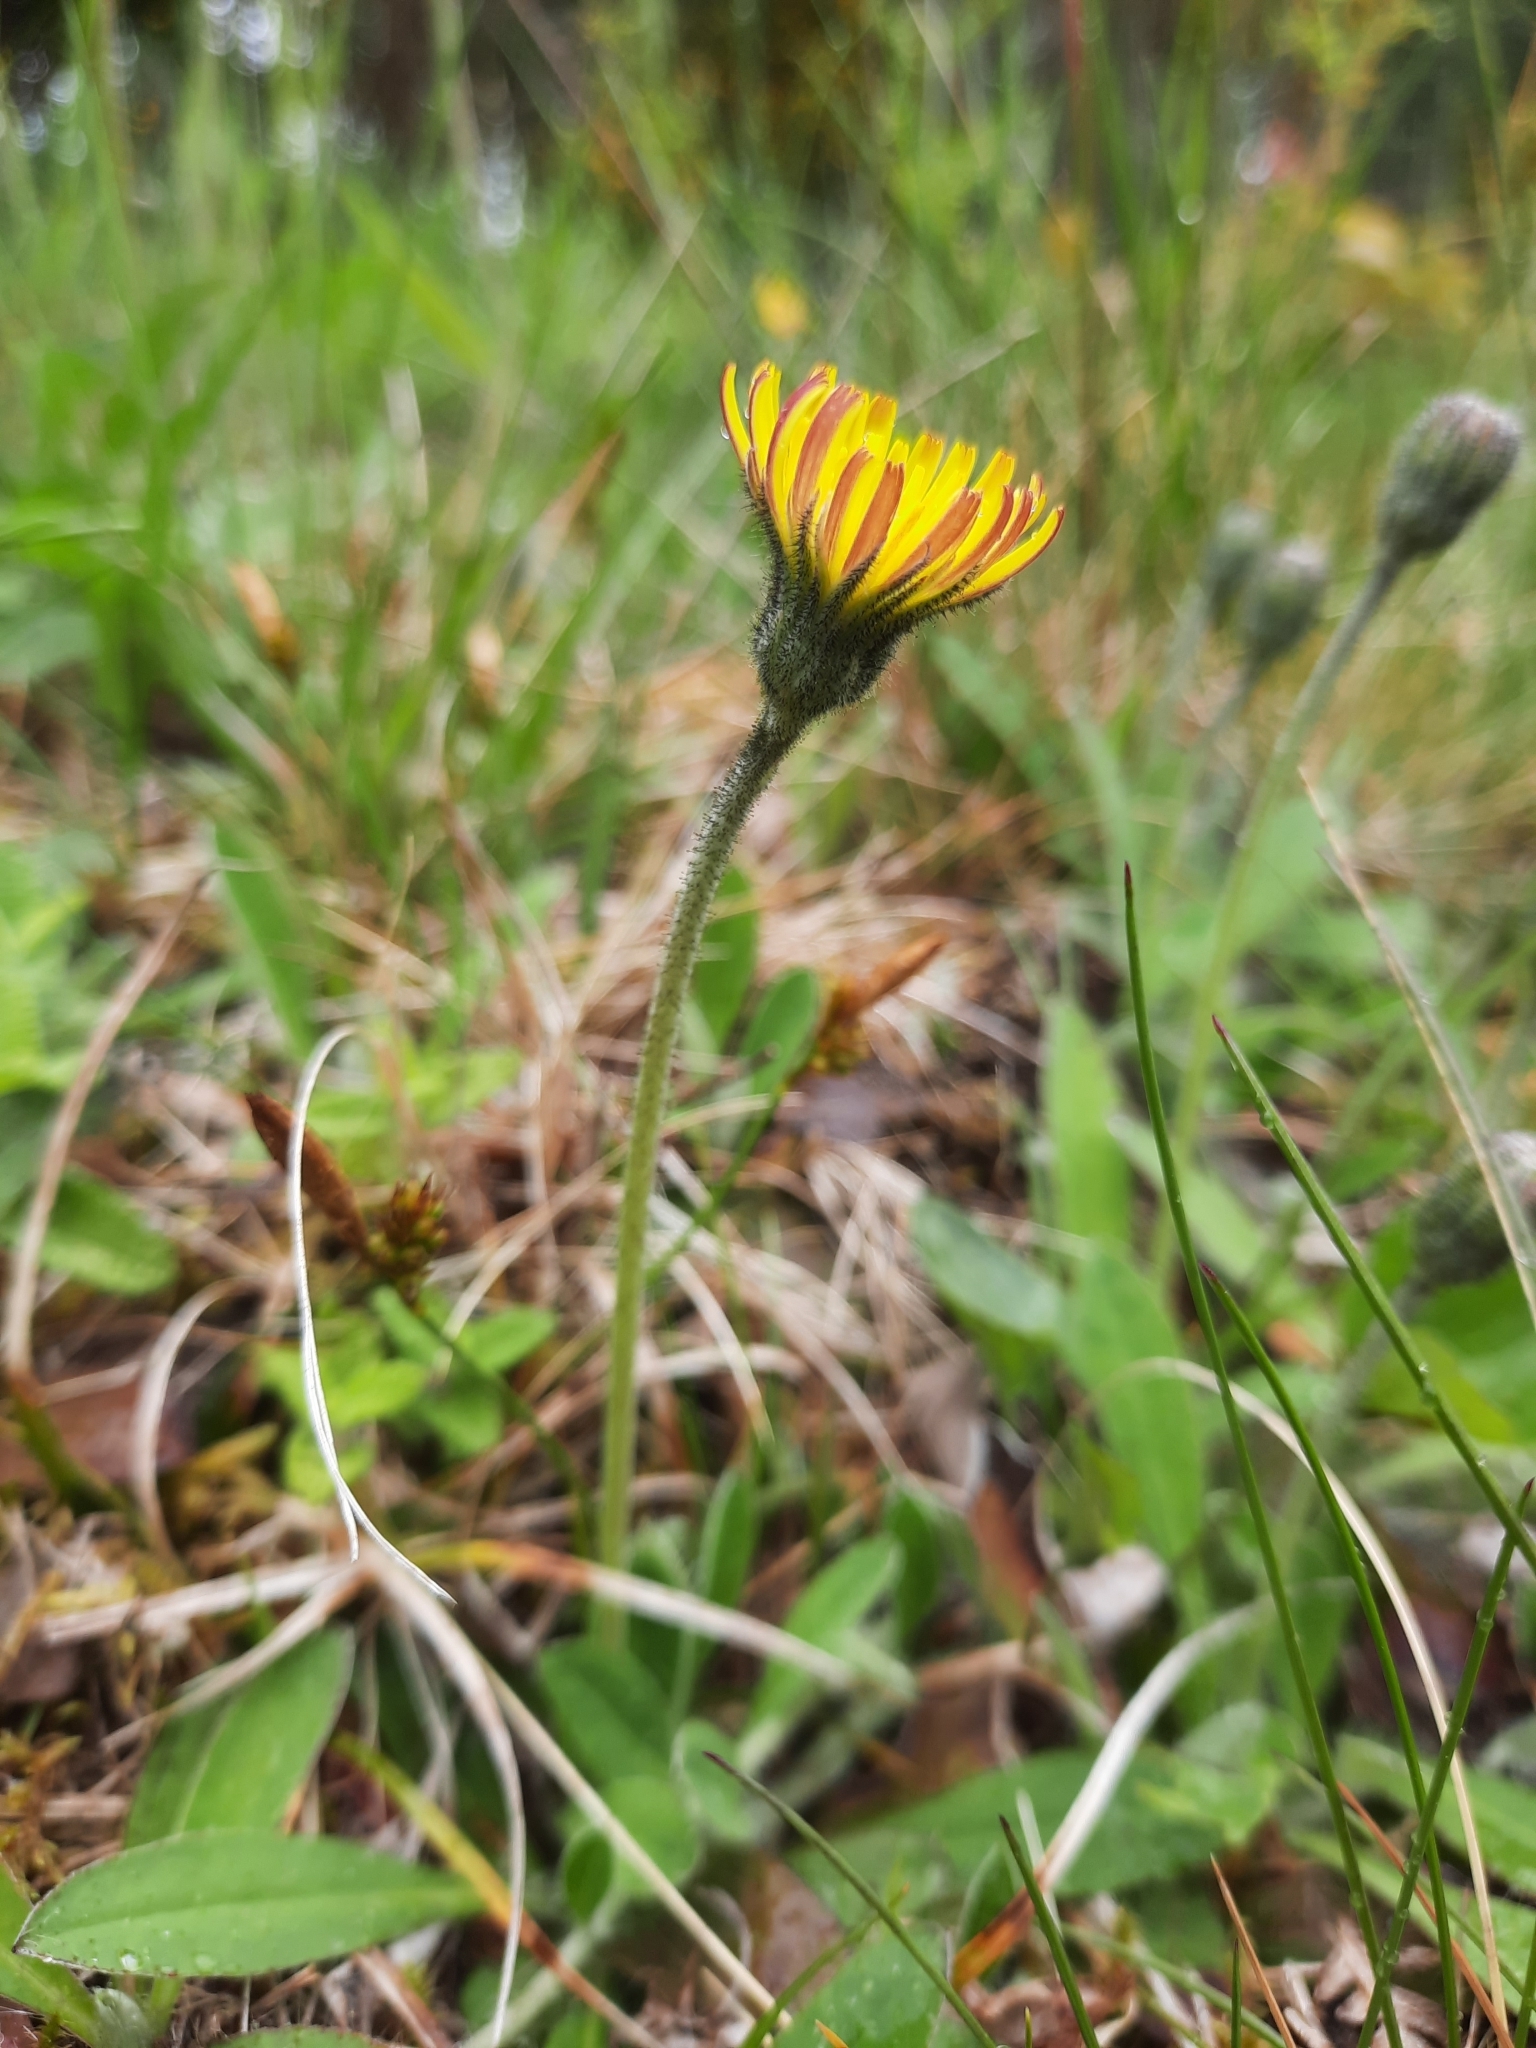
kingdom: Plantae
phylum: Tracheophyta
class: Magnoliopsida
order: Asterales
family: Asteraceae
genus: Pilosella
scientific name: Pilosella officinarum
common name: Mouse-ear hawkweed
